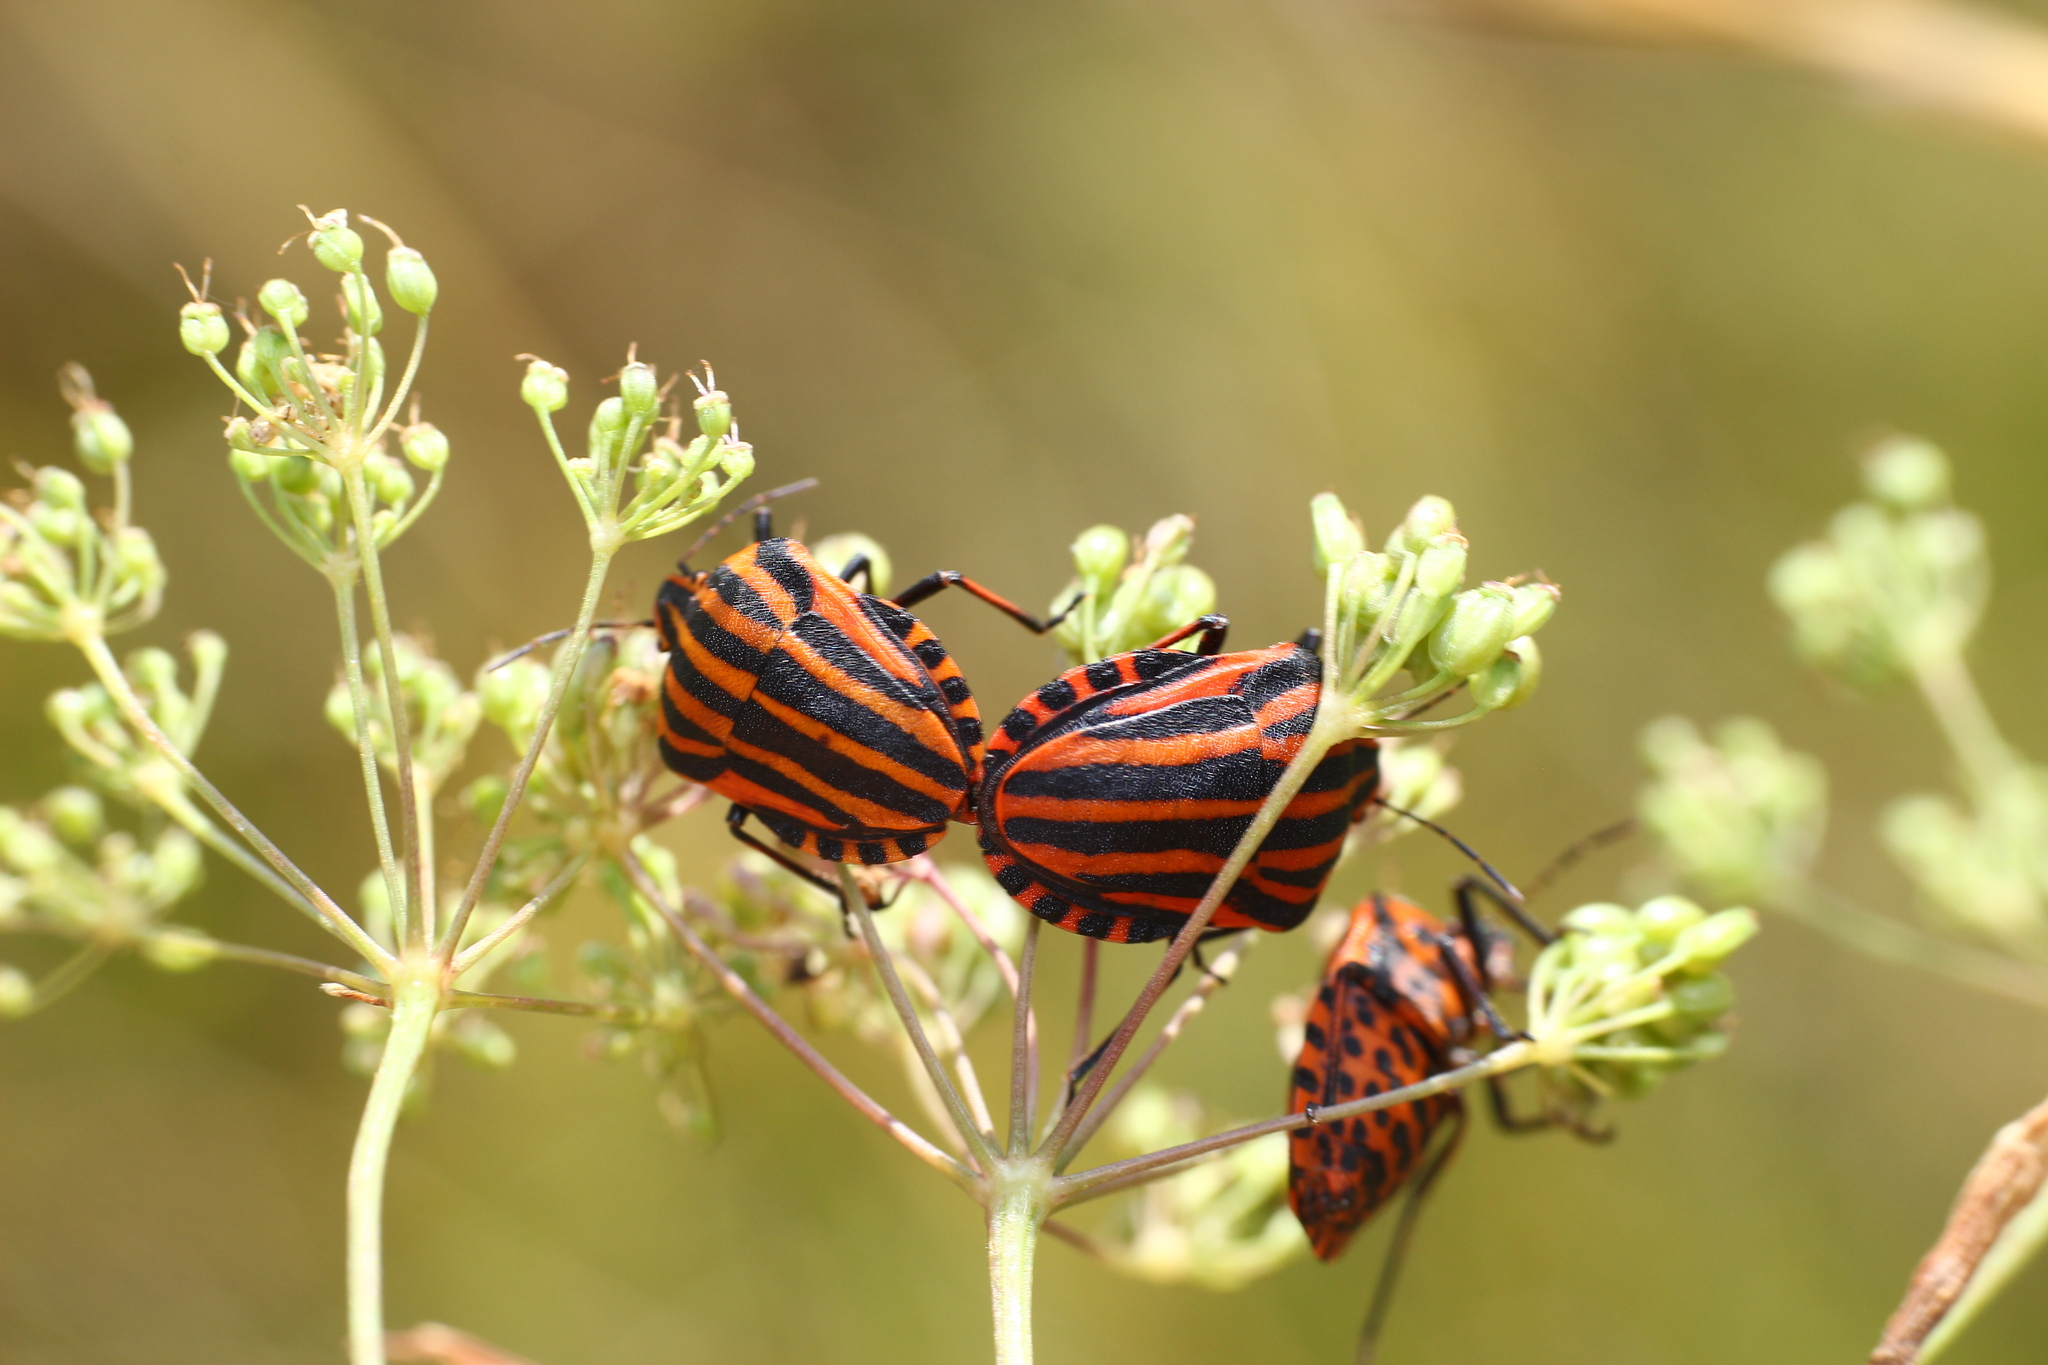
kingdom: Animalia
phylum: Arthropoda
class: Insecta
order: Hemiptera
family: Pentatomidae
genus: Graphosoma
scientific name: Graphosoma italicum
